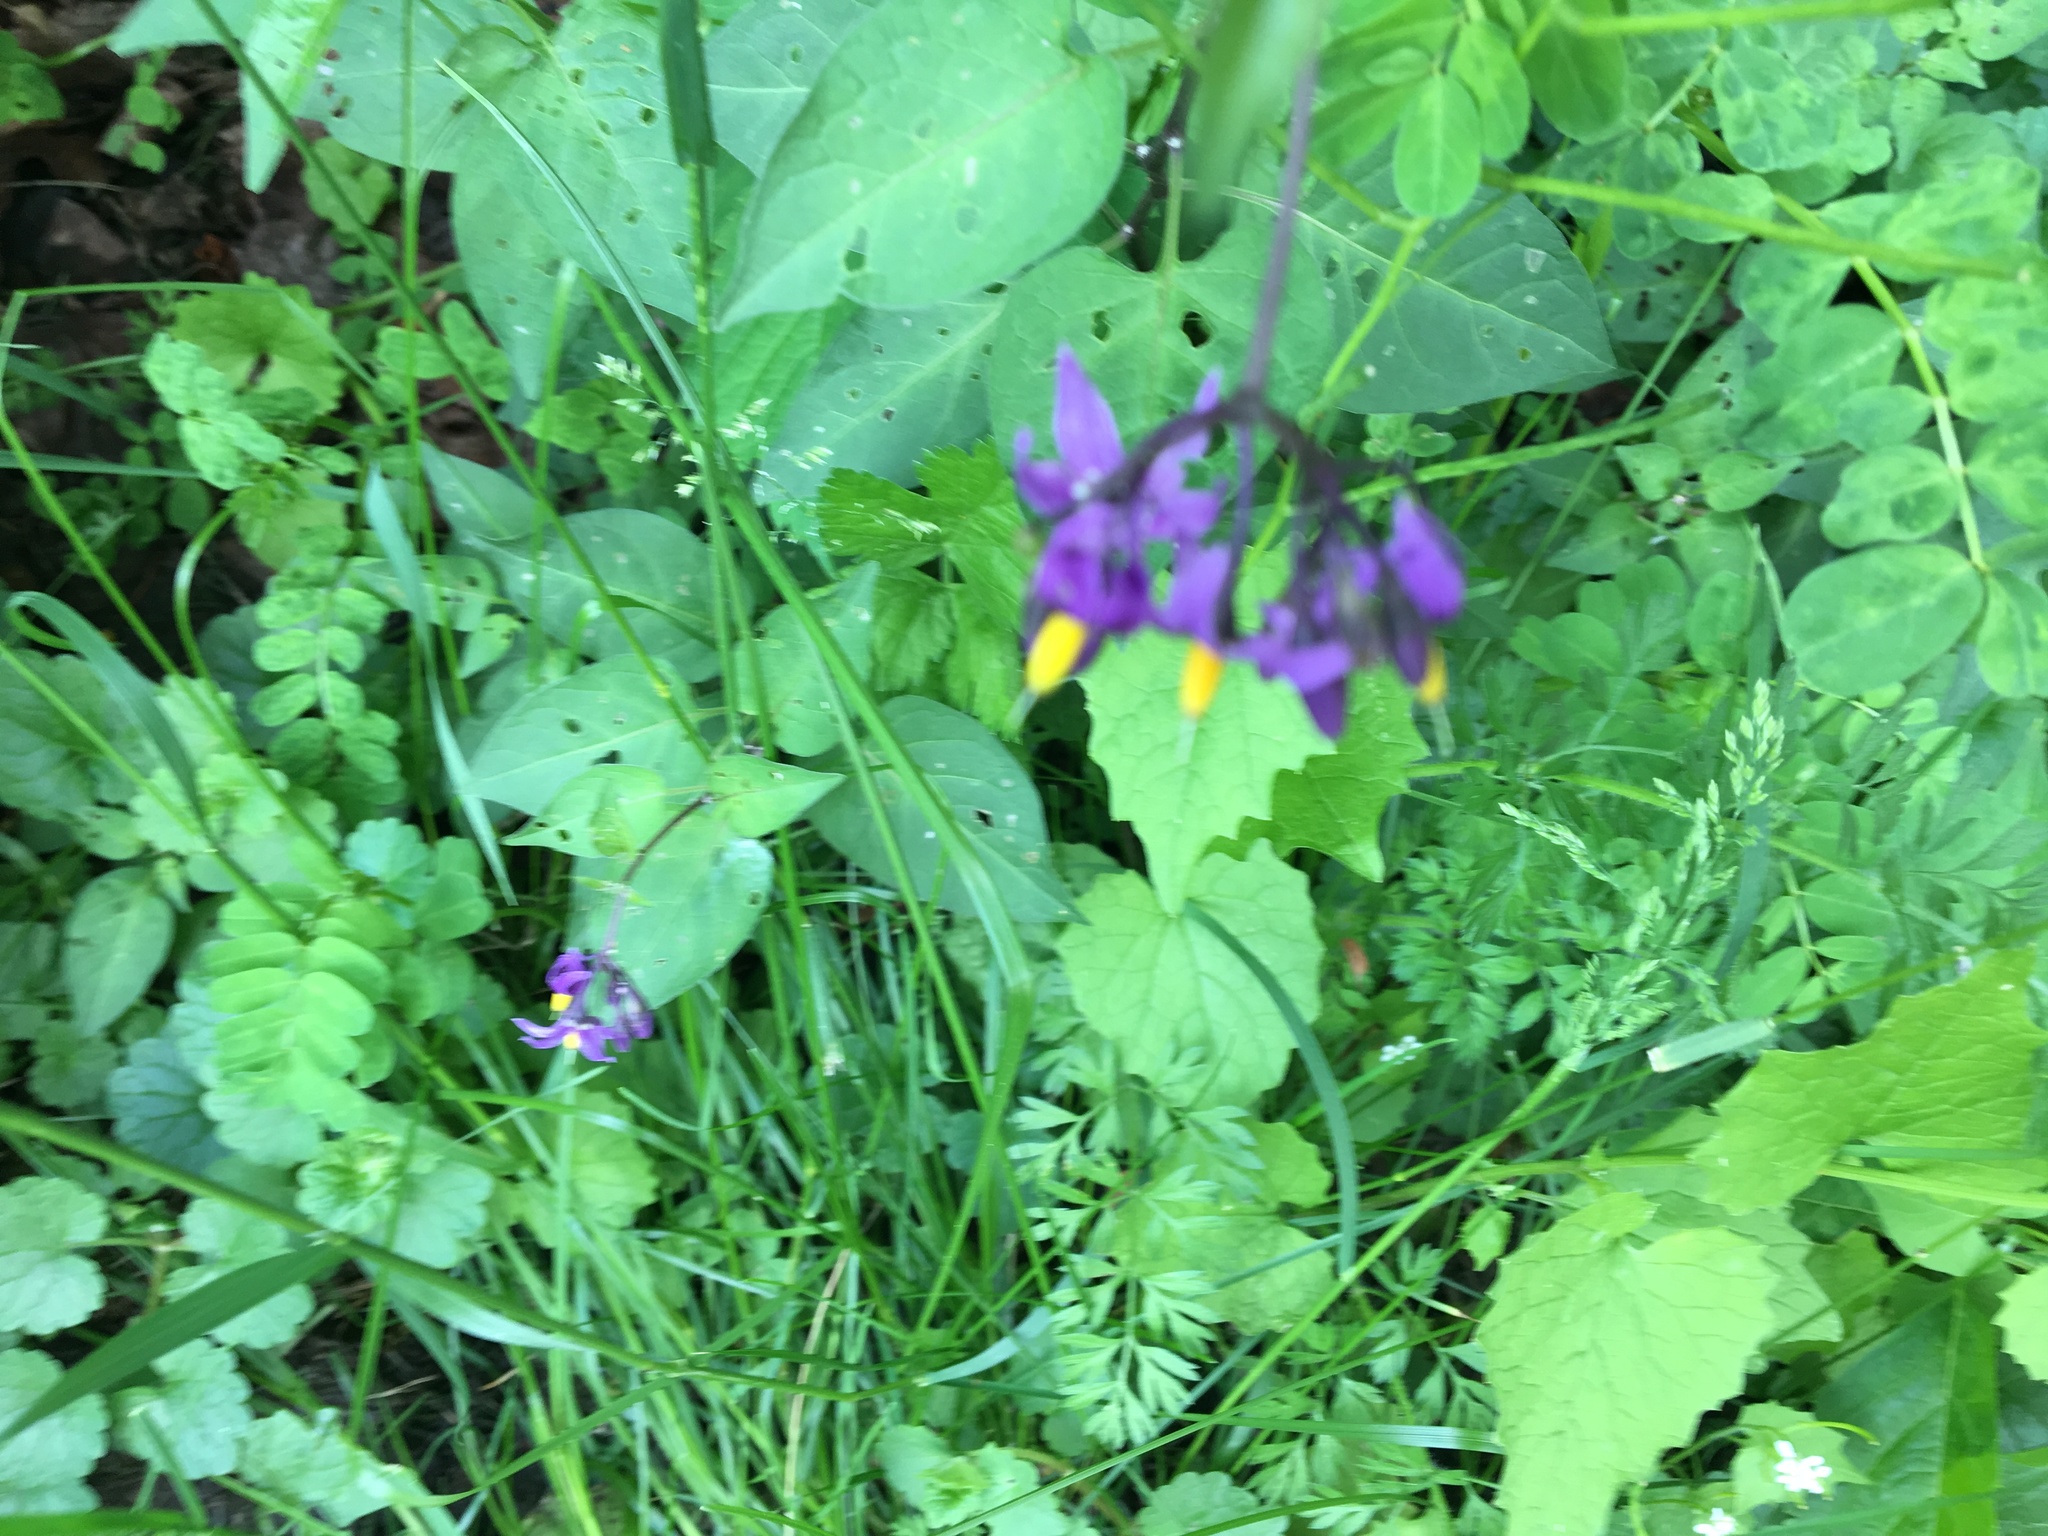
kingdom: Plantae
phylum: Tracheophyta
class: Magnoliopsida
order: Solanales
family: Solanaceae
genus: Solanum
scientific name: Solanum dulcamara
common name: Climbing nightshade
